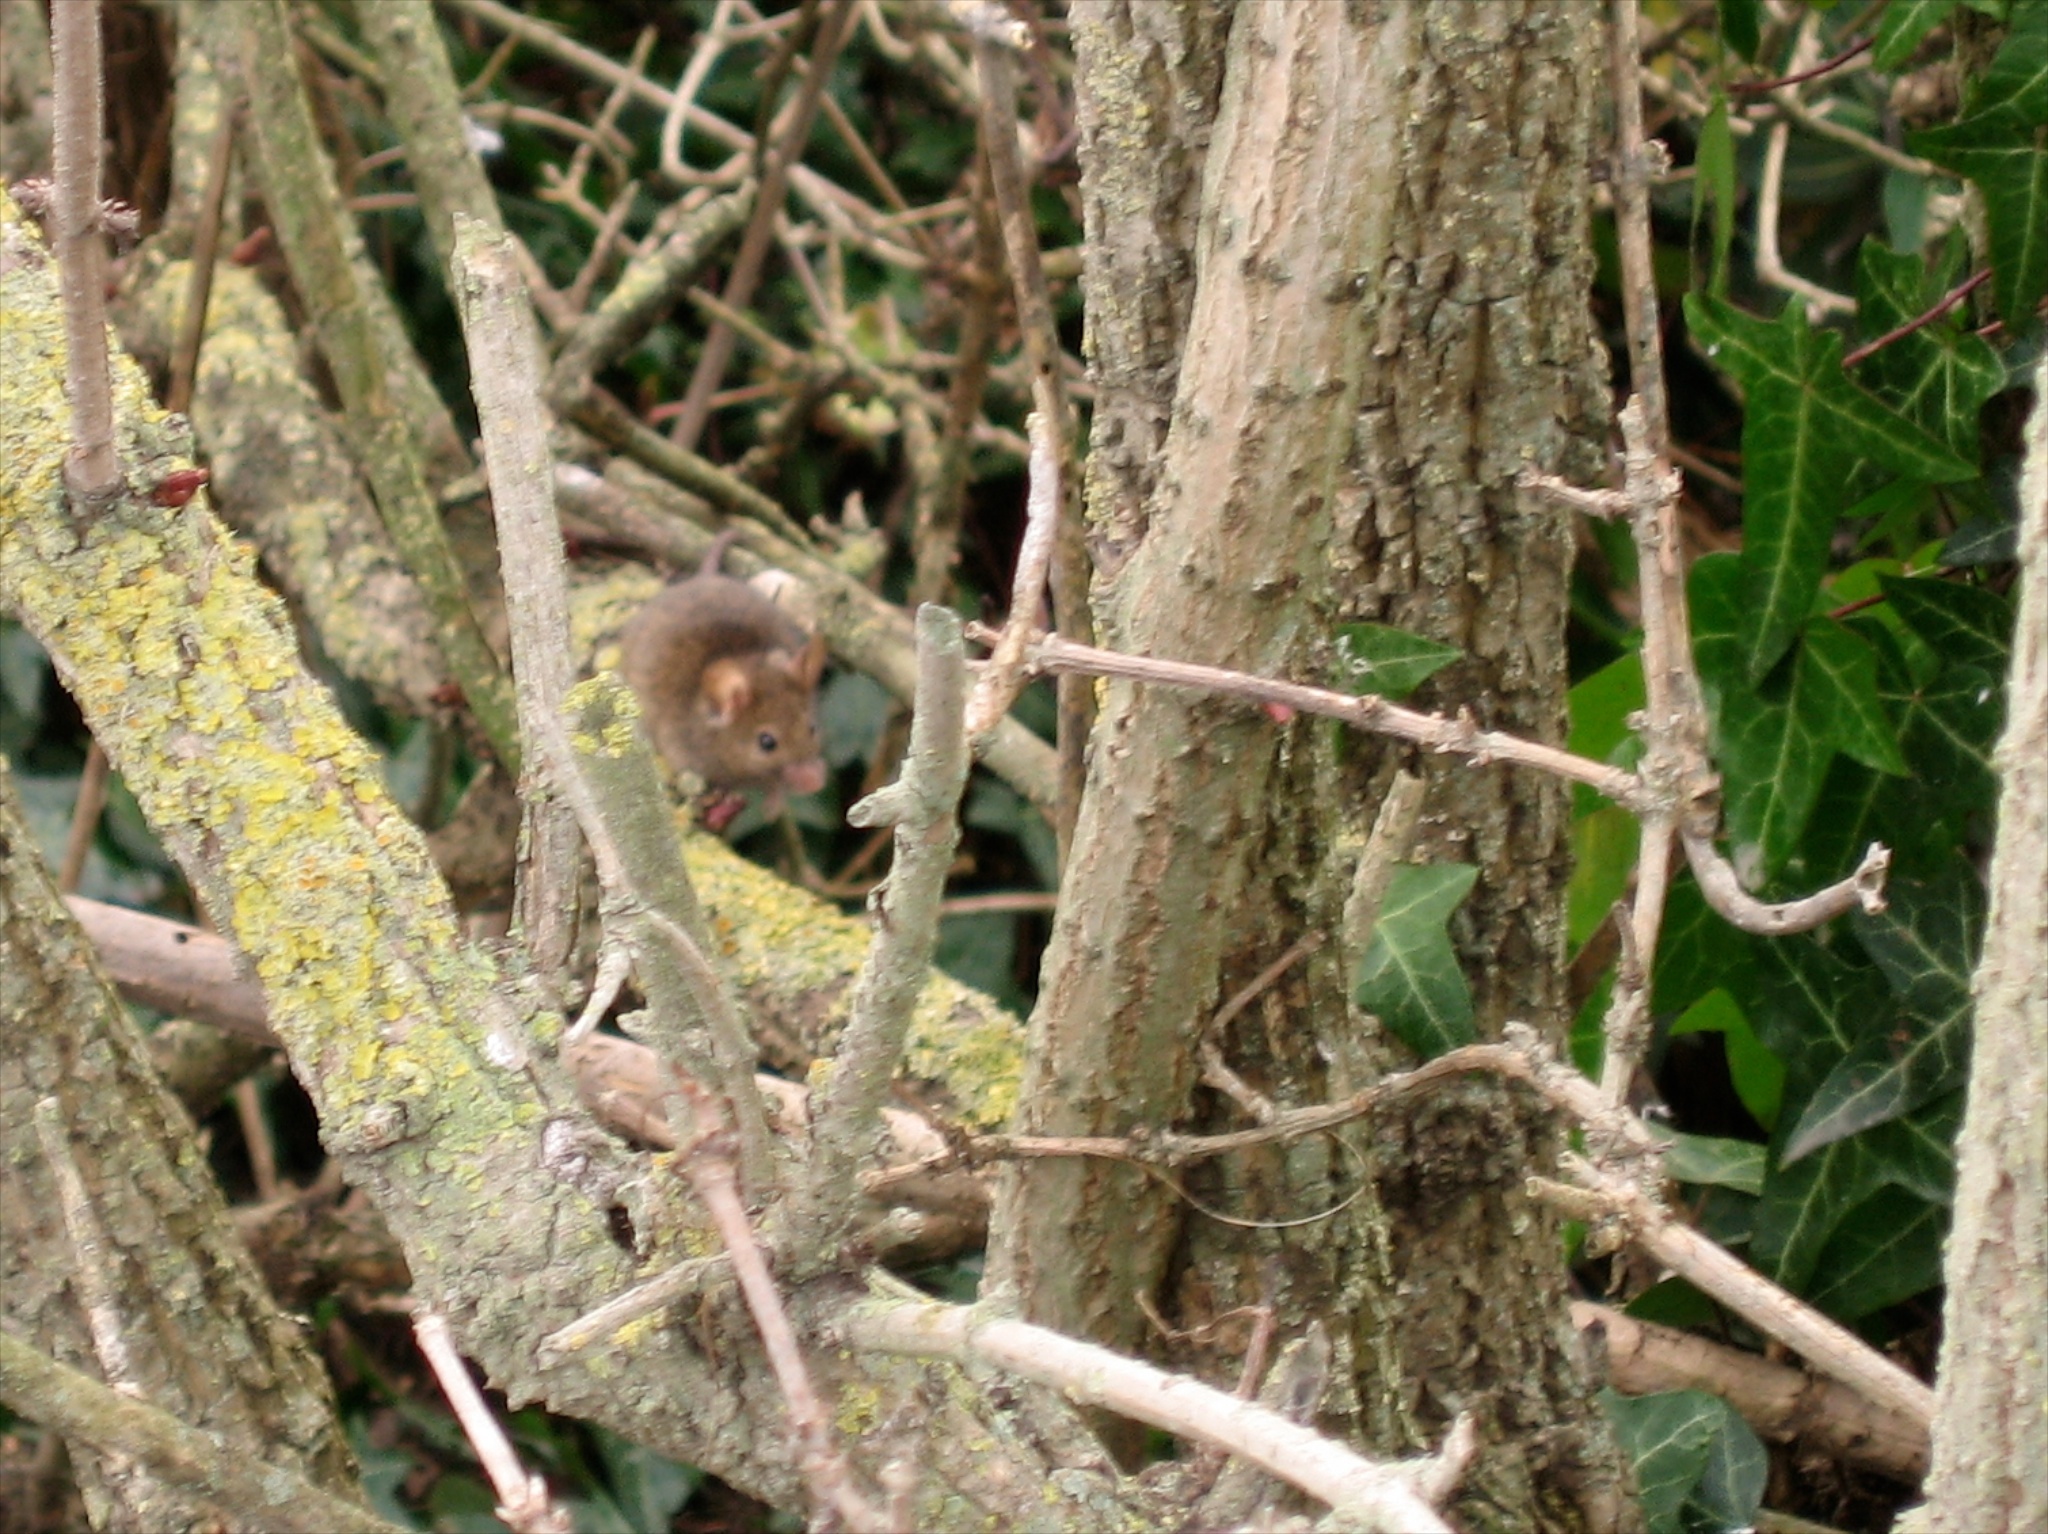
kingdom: Animalia
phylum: Chordata
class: Mammalia
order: Rodentia
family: Muridae
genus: Mus
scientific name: Mus musculus
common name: House mouse
